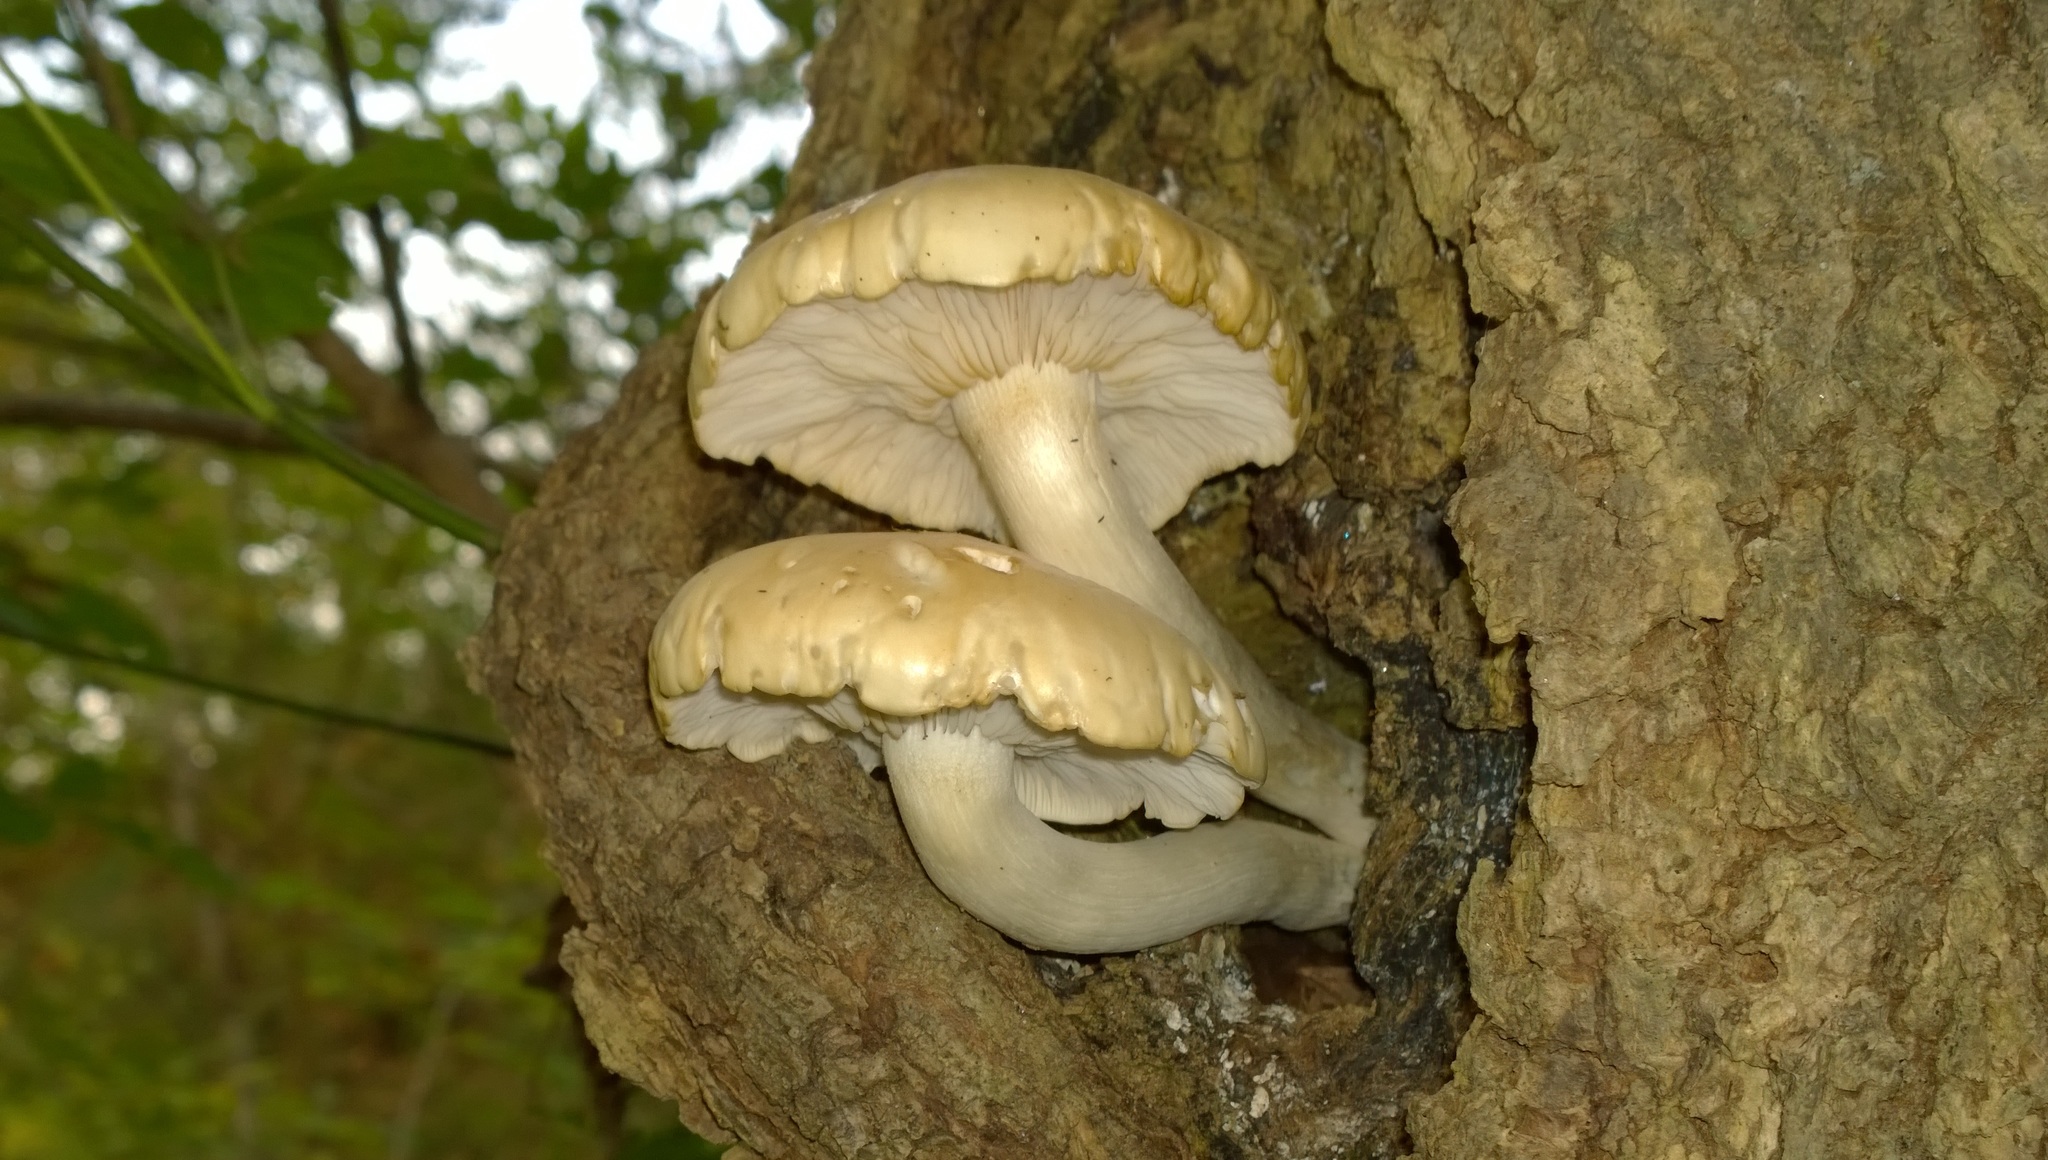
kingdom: Fungi
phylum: Basidiomycota
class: Agaricomycetes
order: Agaricales
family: Lyophyllaceae
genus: Hypsizygus
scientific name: Hypsizygus ulmarius
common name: Elm leech
